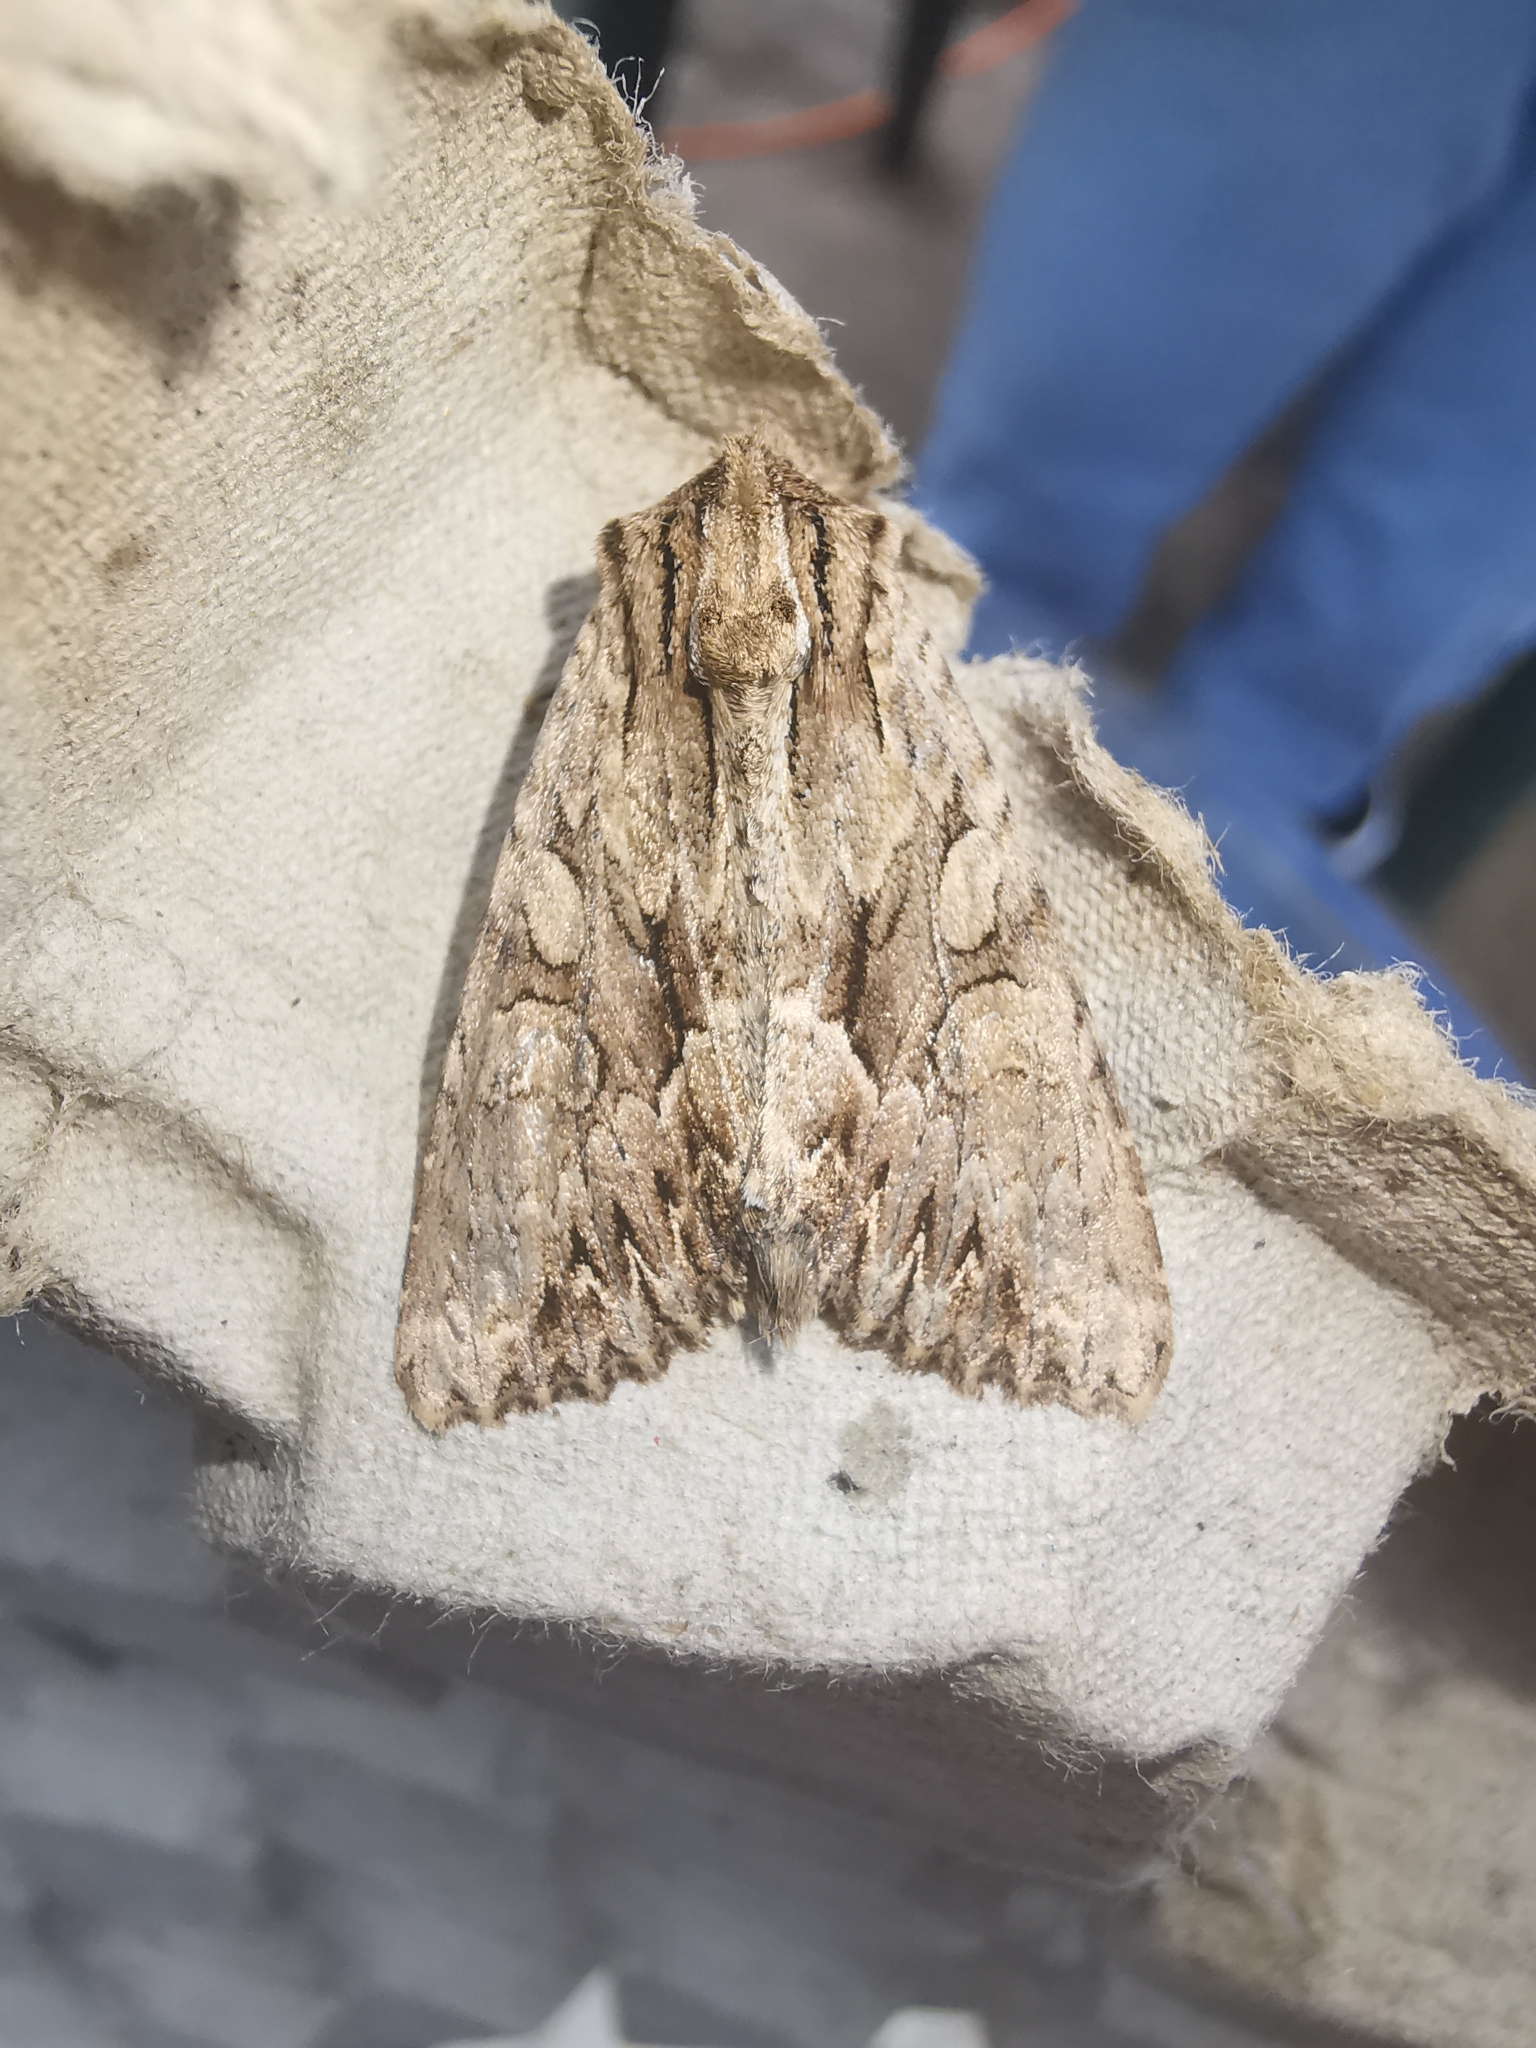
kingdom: Animalia
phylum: Arthropoda
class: Insecta
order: Lepidoptera
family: Noctuidae
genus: Apamea
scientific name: Apamea monoglypha
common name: Dark arches
